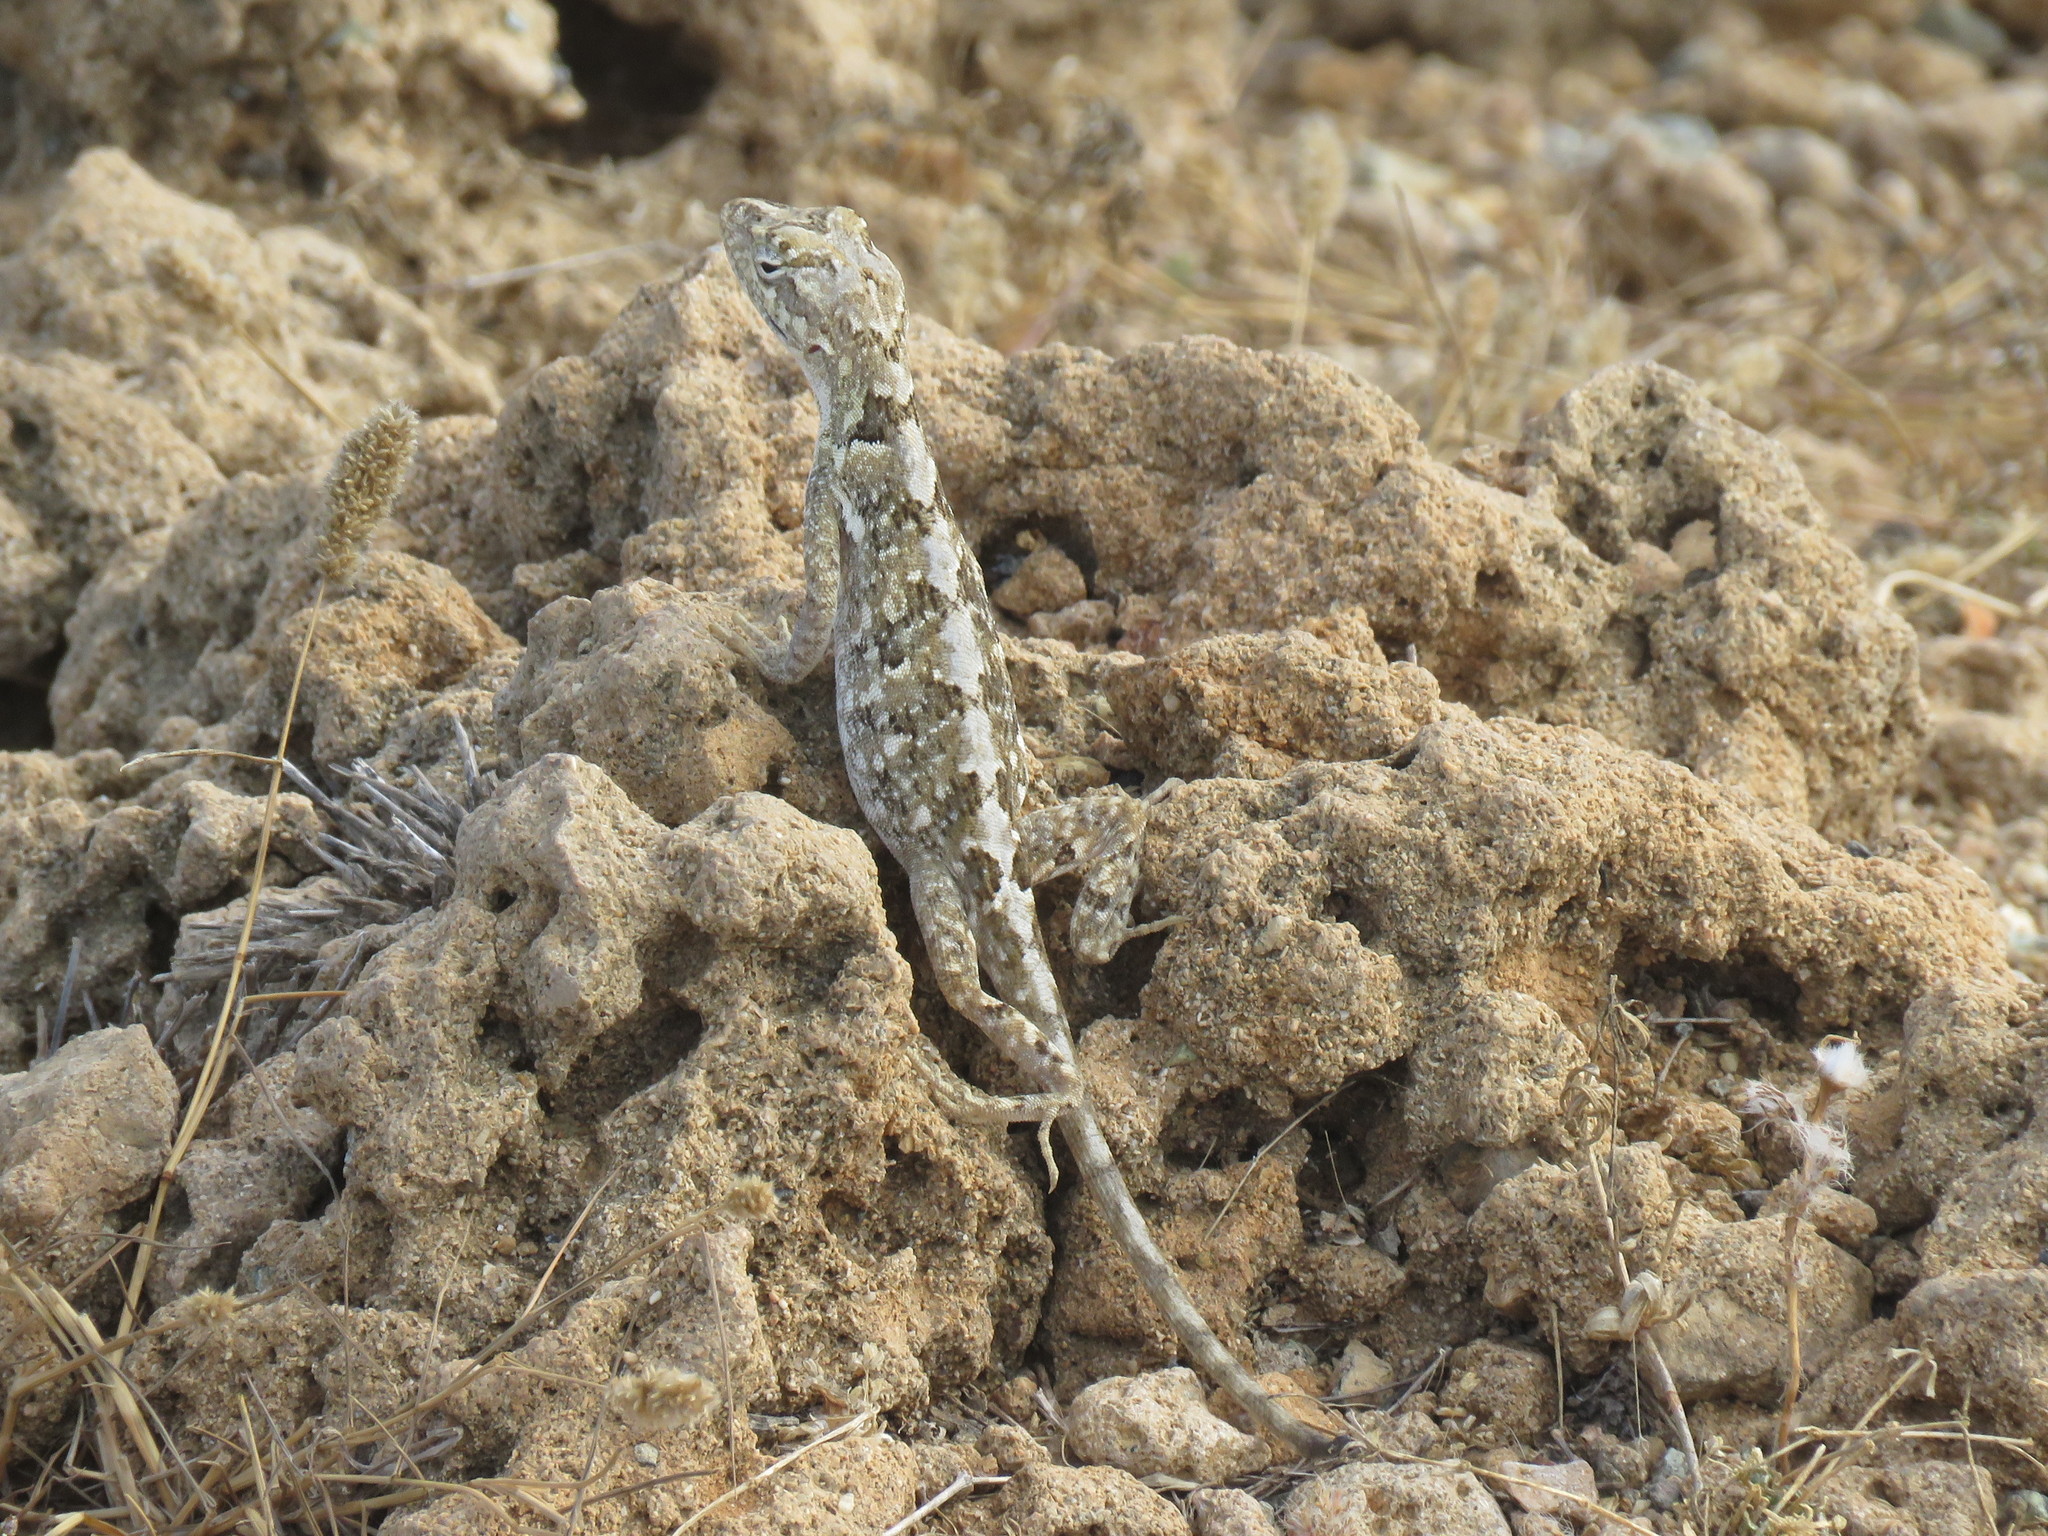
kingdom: Animalia
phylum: Chordata
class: Squamata
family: Dactyloidae
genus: Anolis
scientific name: Anolis onca
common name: Bulky anole
